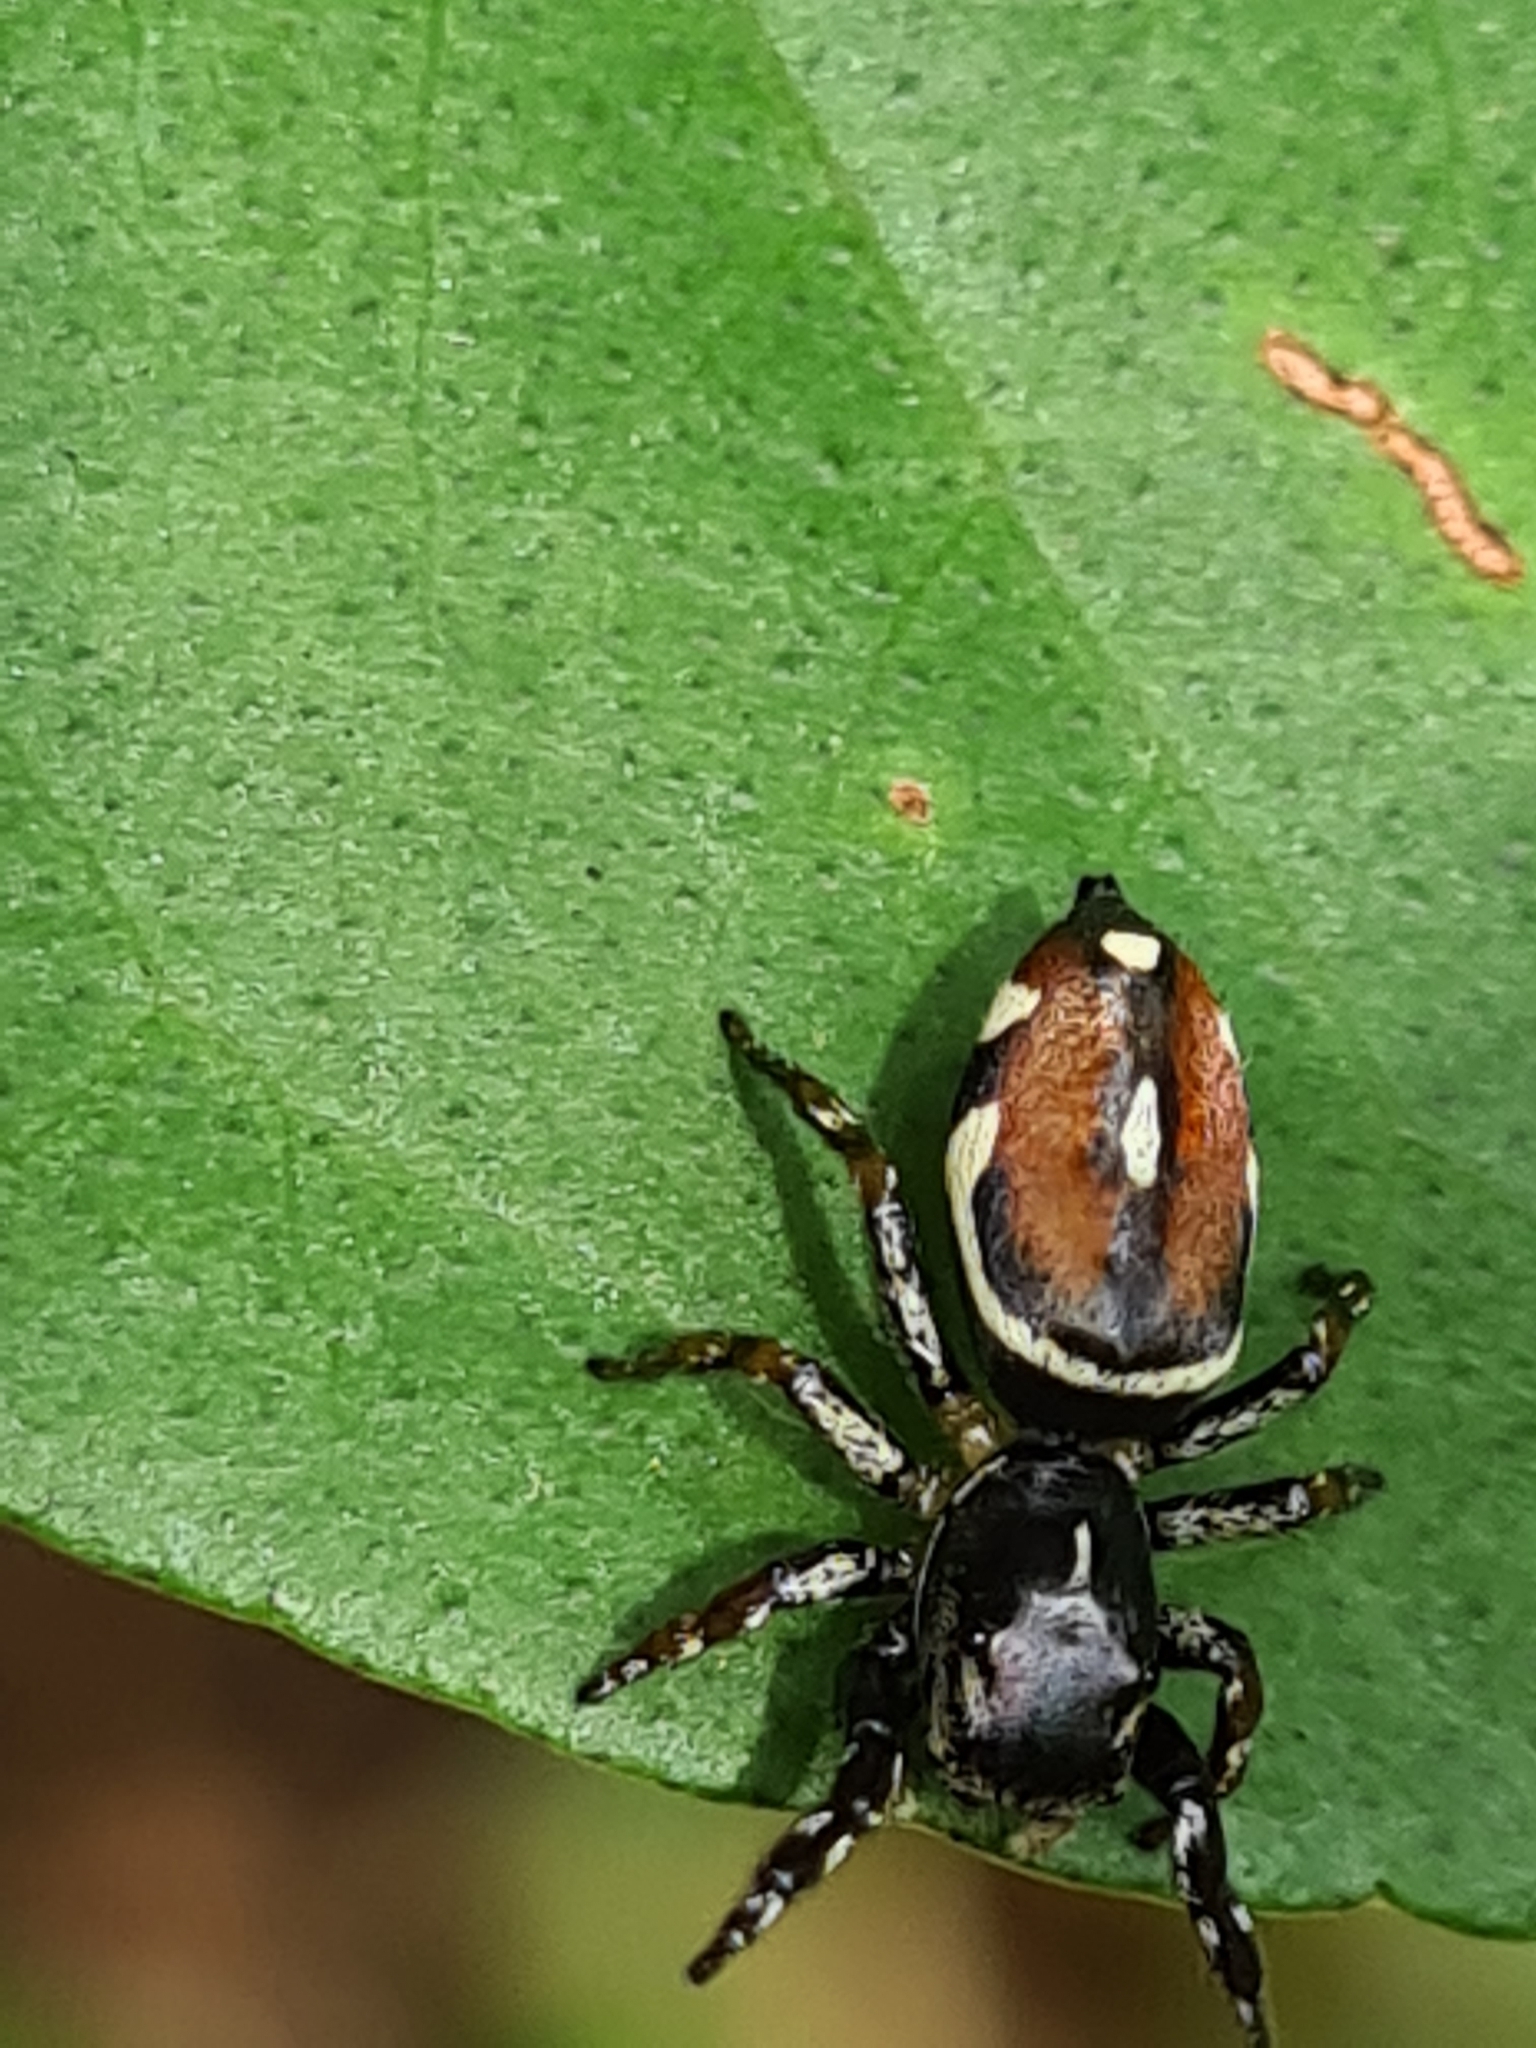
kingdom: Animalia
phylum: Arthropoda
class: Arachnida
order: Araneae
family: Salticidae
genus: Pachomius
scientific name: Pachomius dybowskii
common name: Jumping spiders
